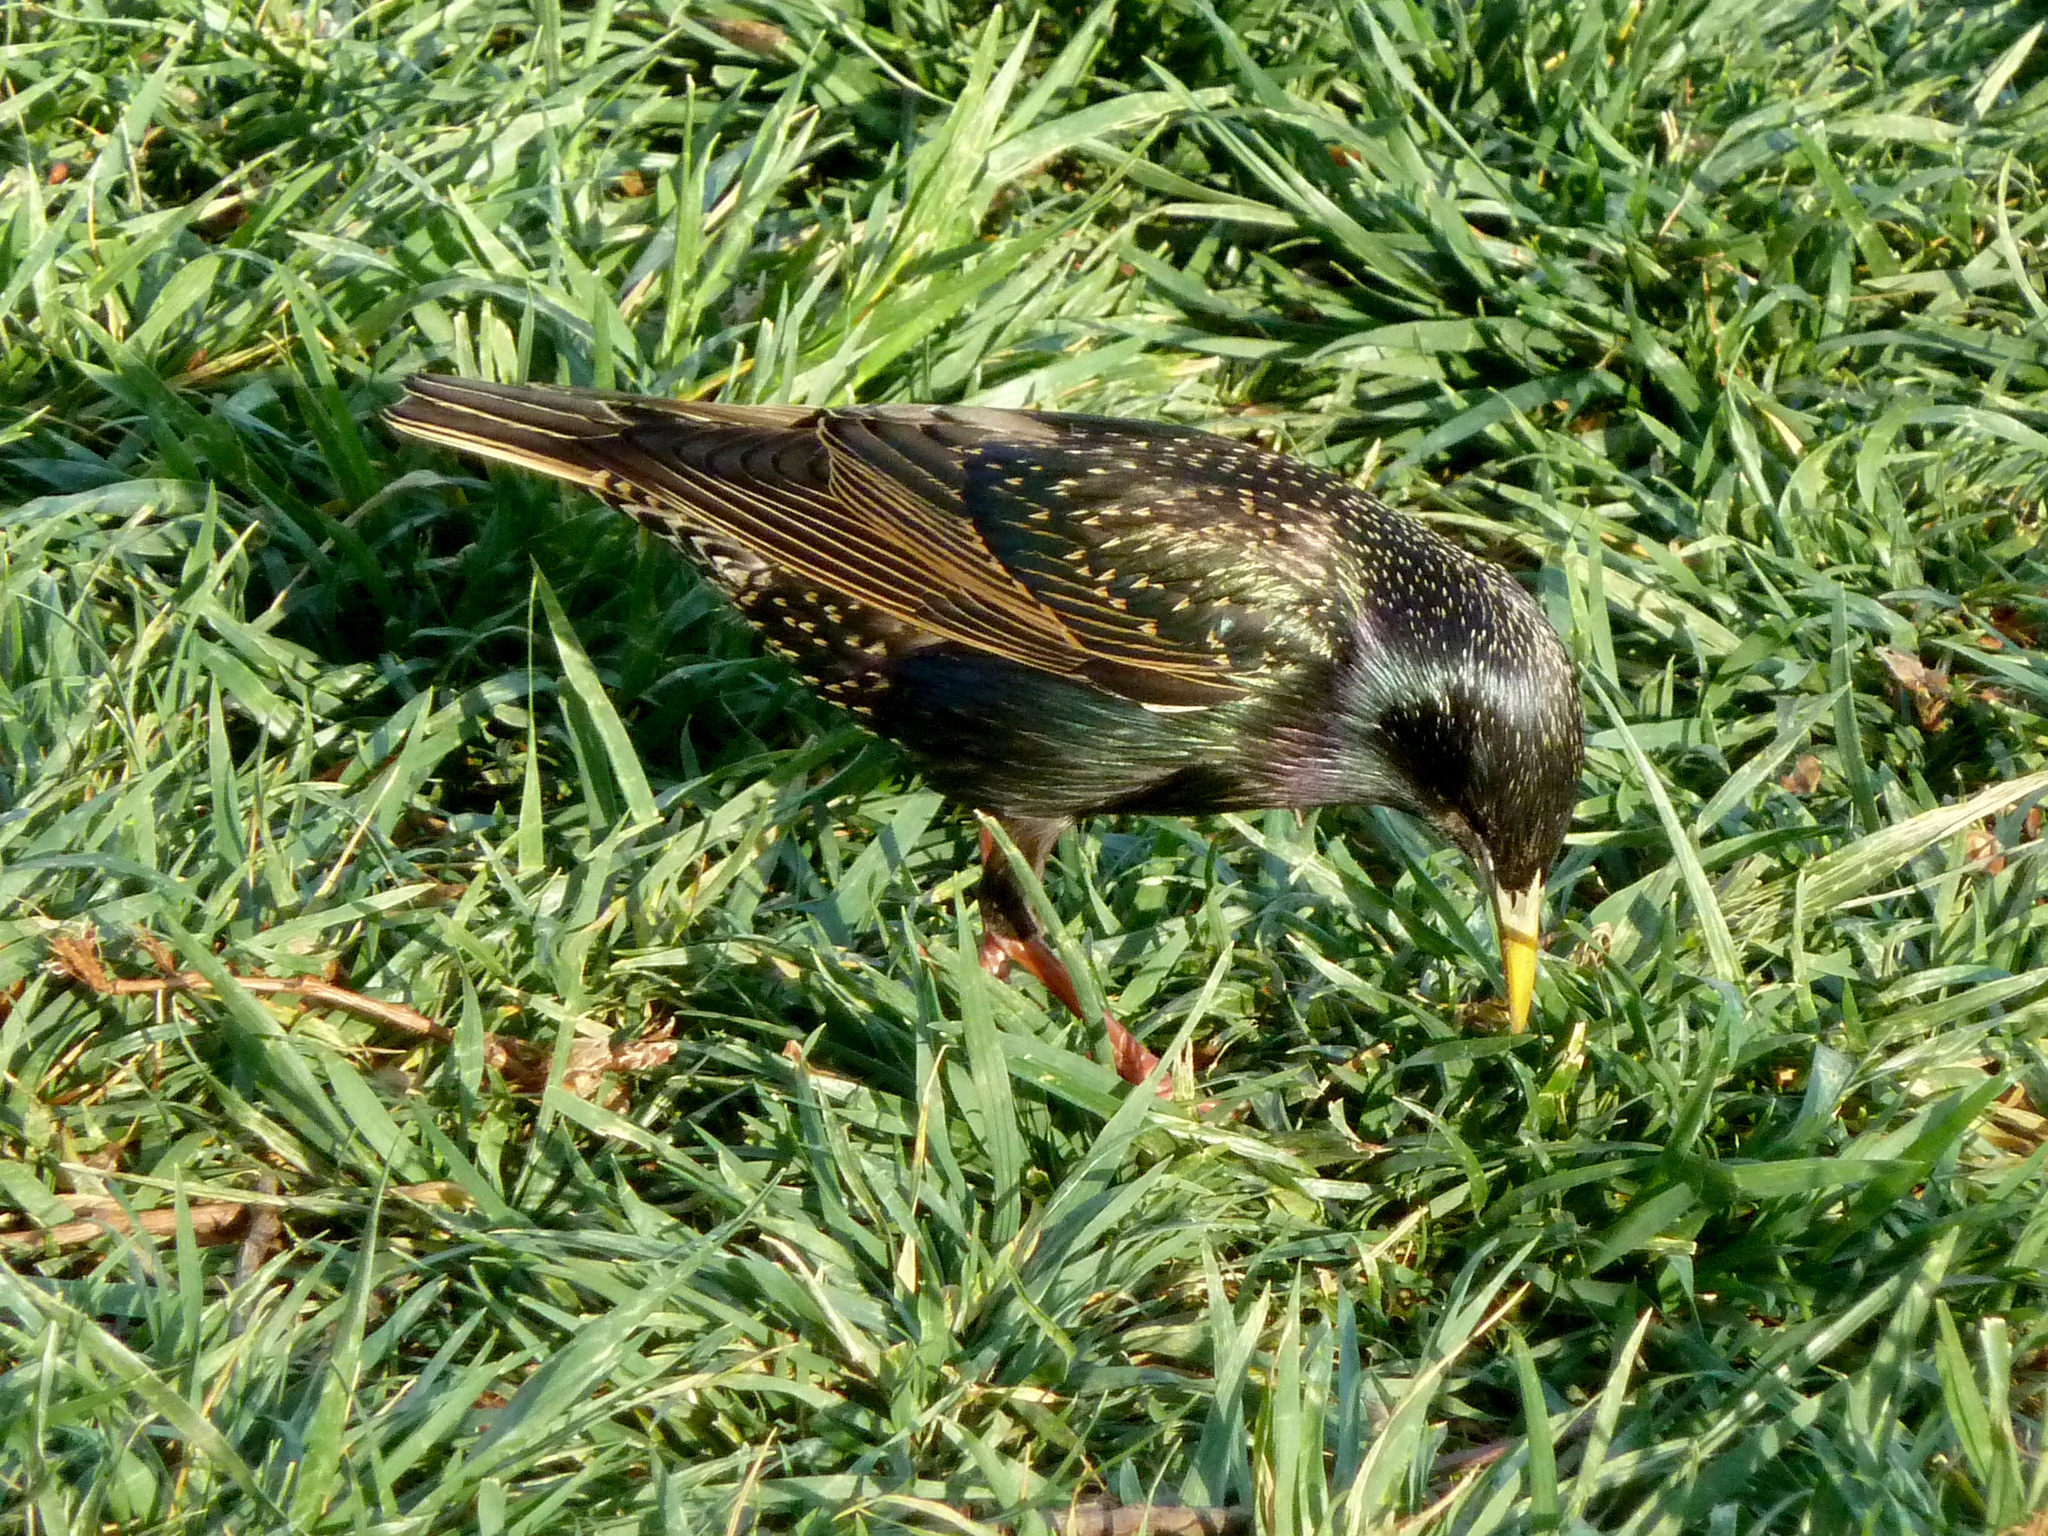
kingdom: Animalia
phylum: Chordata
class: Aves
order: Passeriformes
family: Sturnidae
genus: Sturnus
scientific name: Sturnus vulgaris
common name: Common starling
